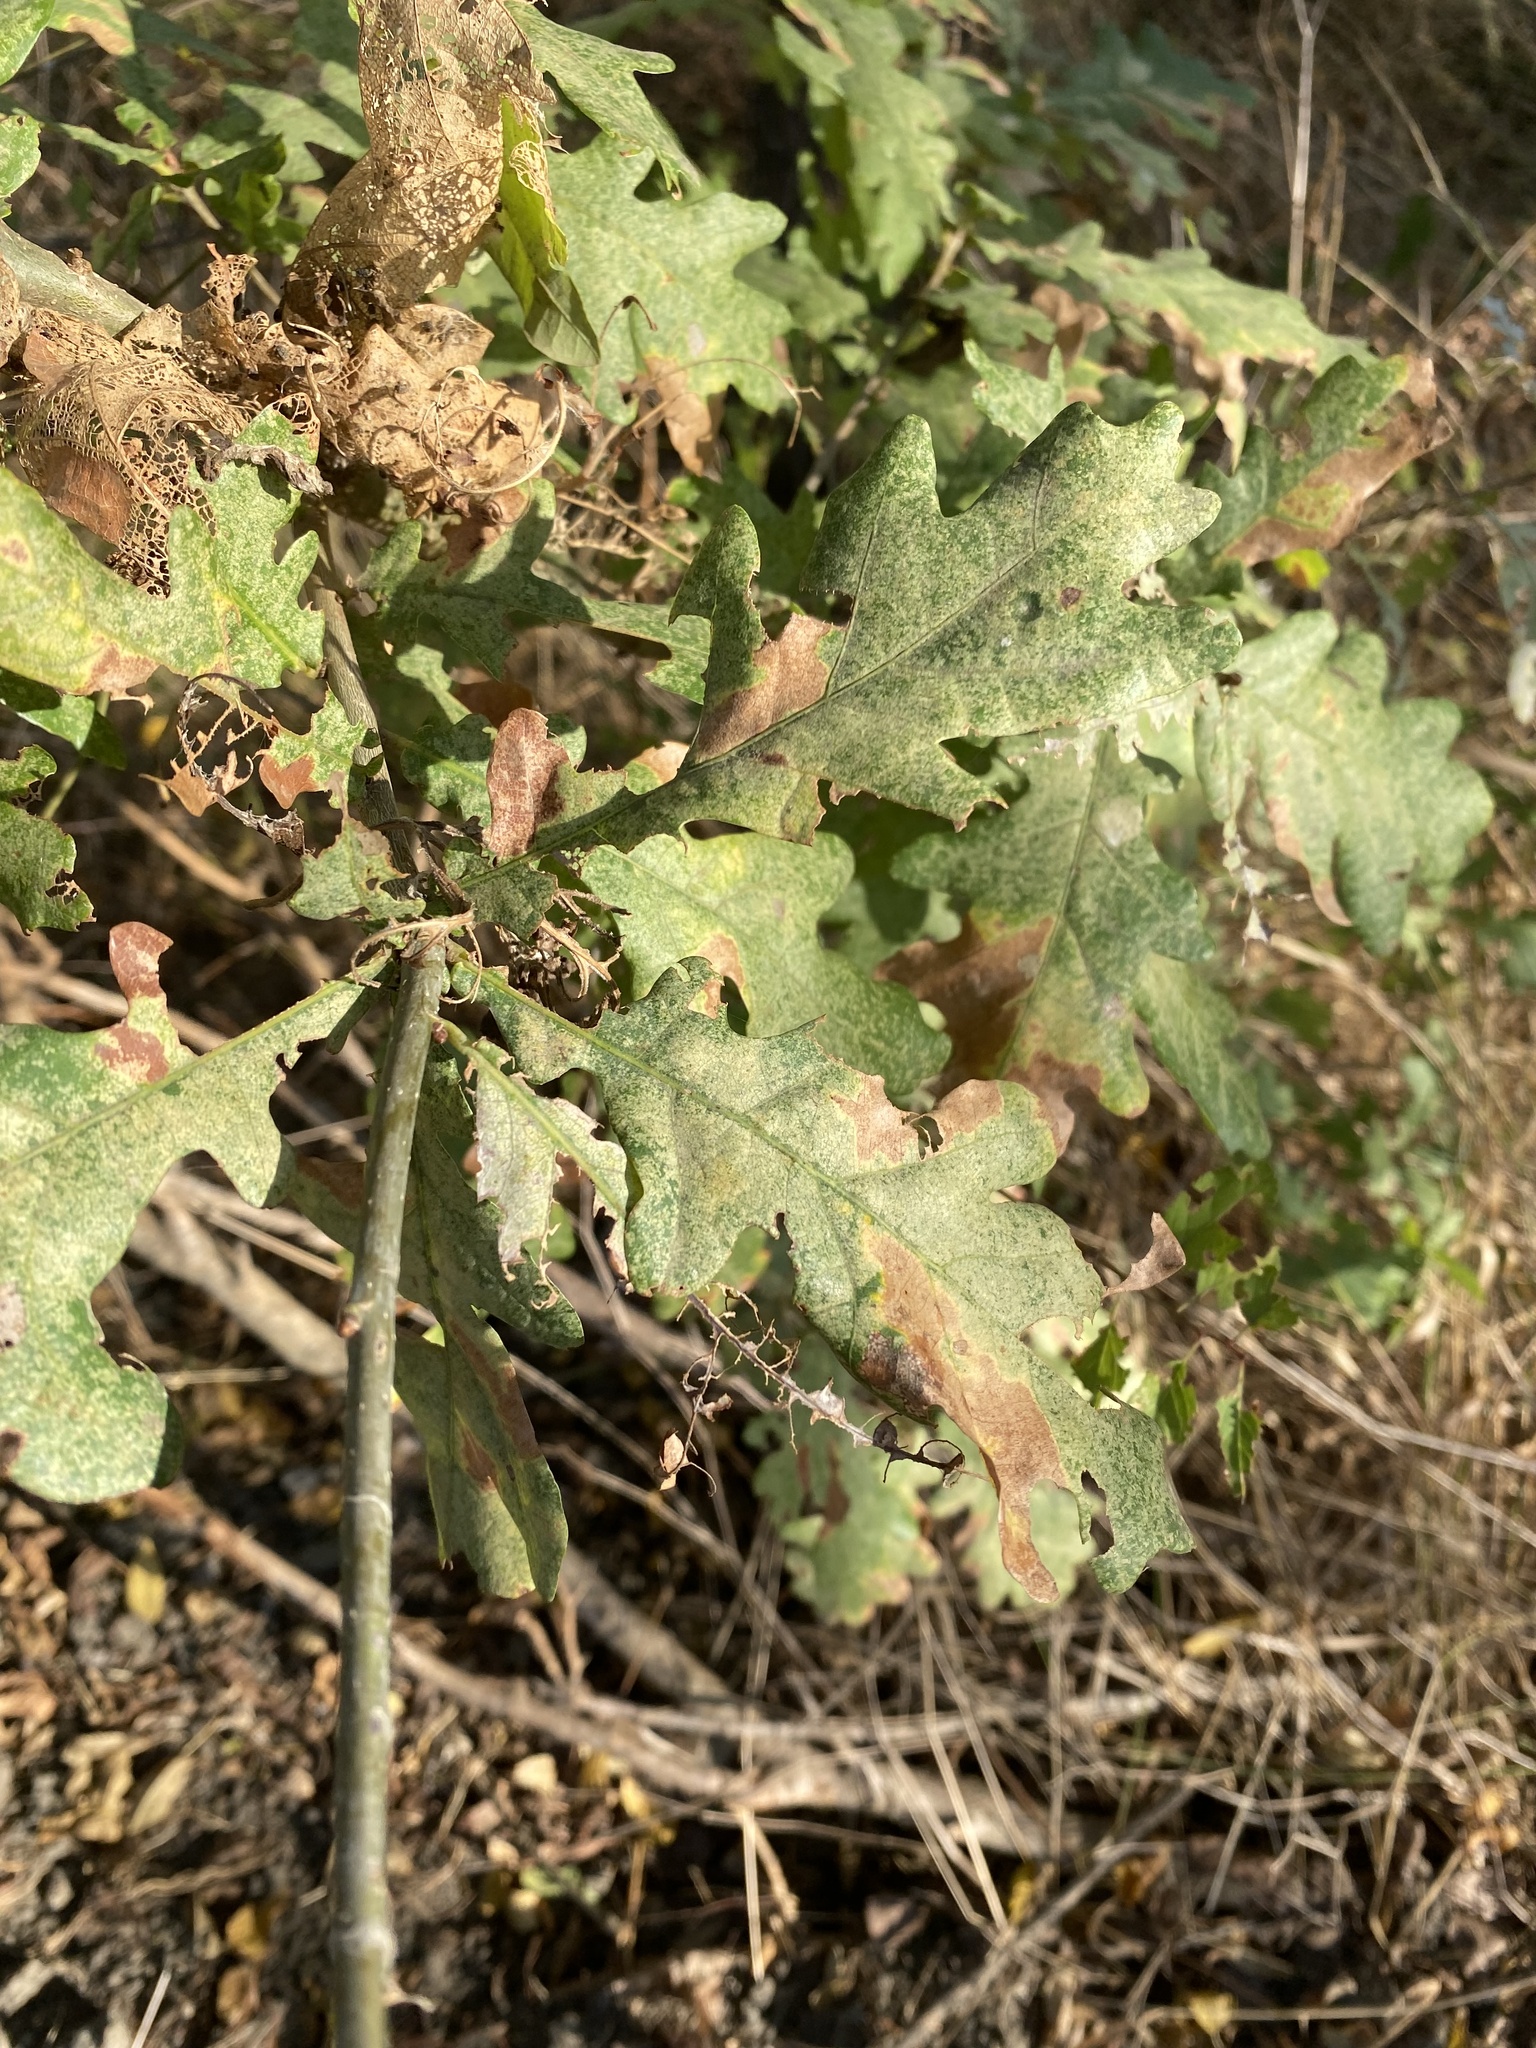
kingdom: Plantae
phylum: Tracheophyta
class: Magnoliopsida
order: Fagales
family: Fagaceae
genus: Quercus
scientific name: Quercus robur
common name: Pedunculate oak
